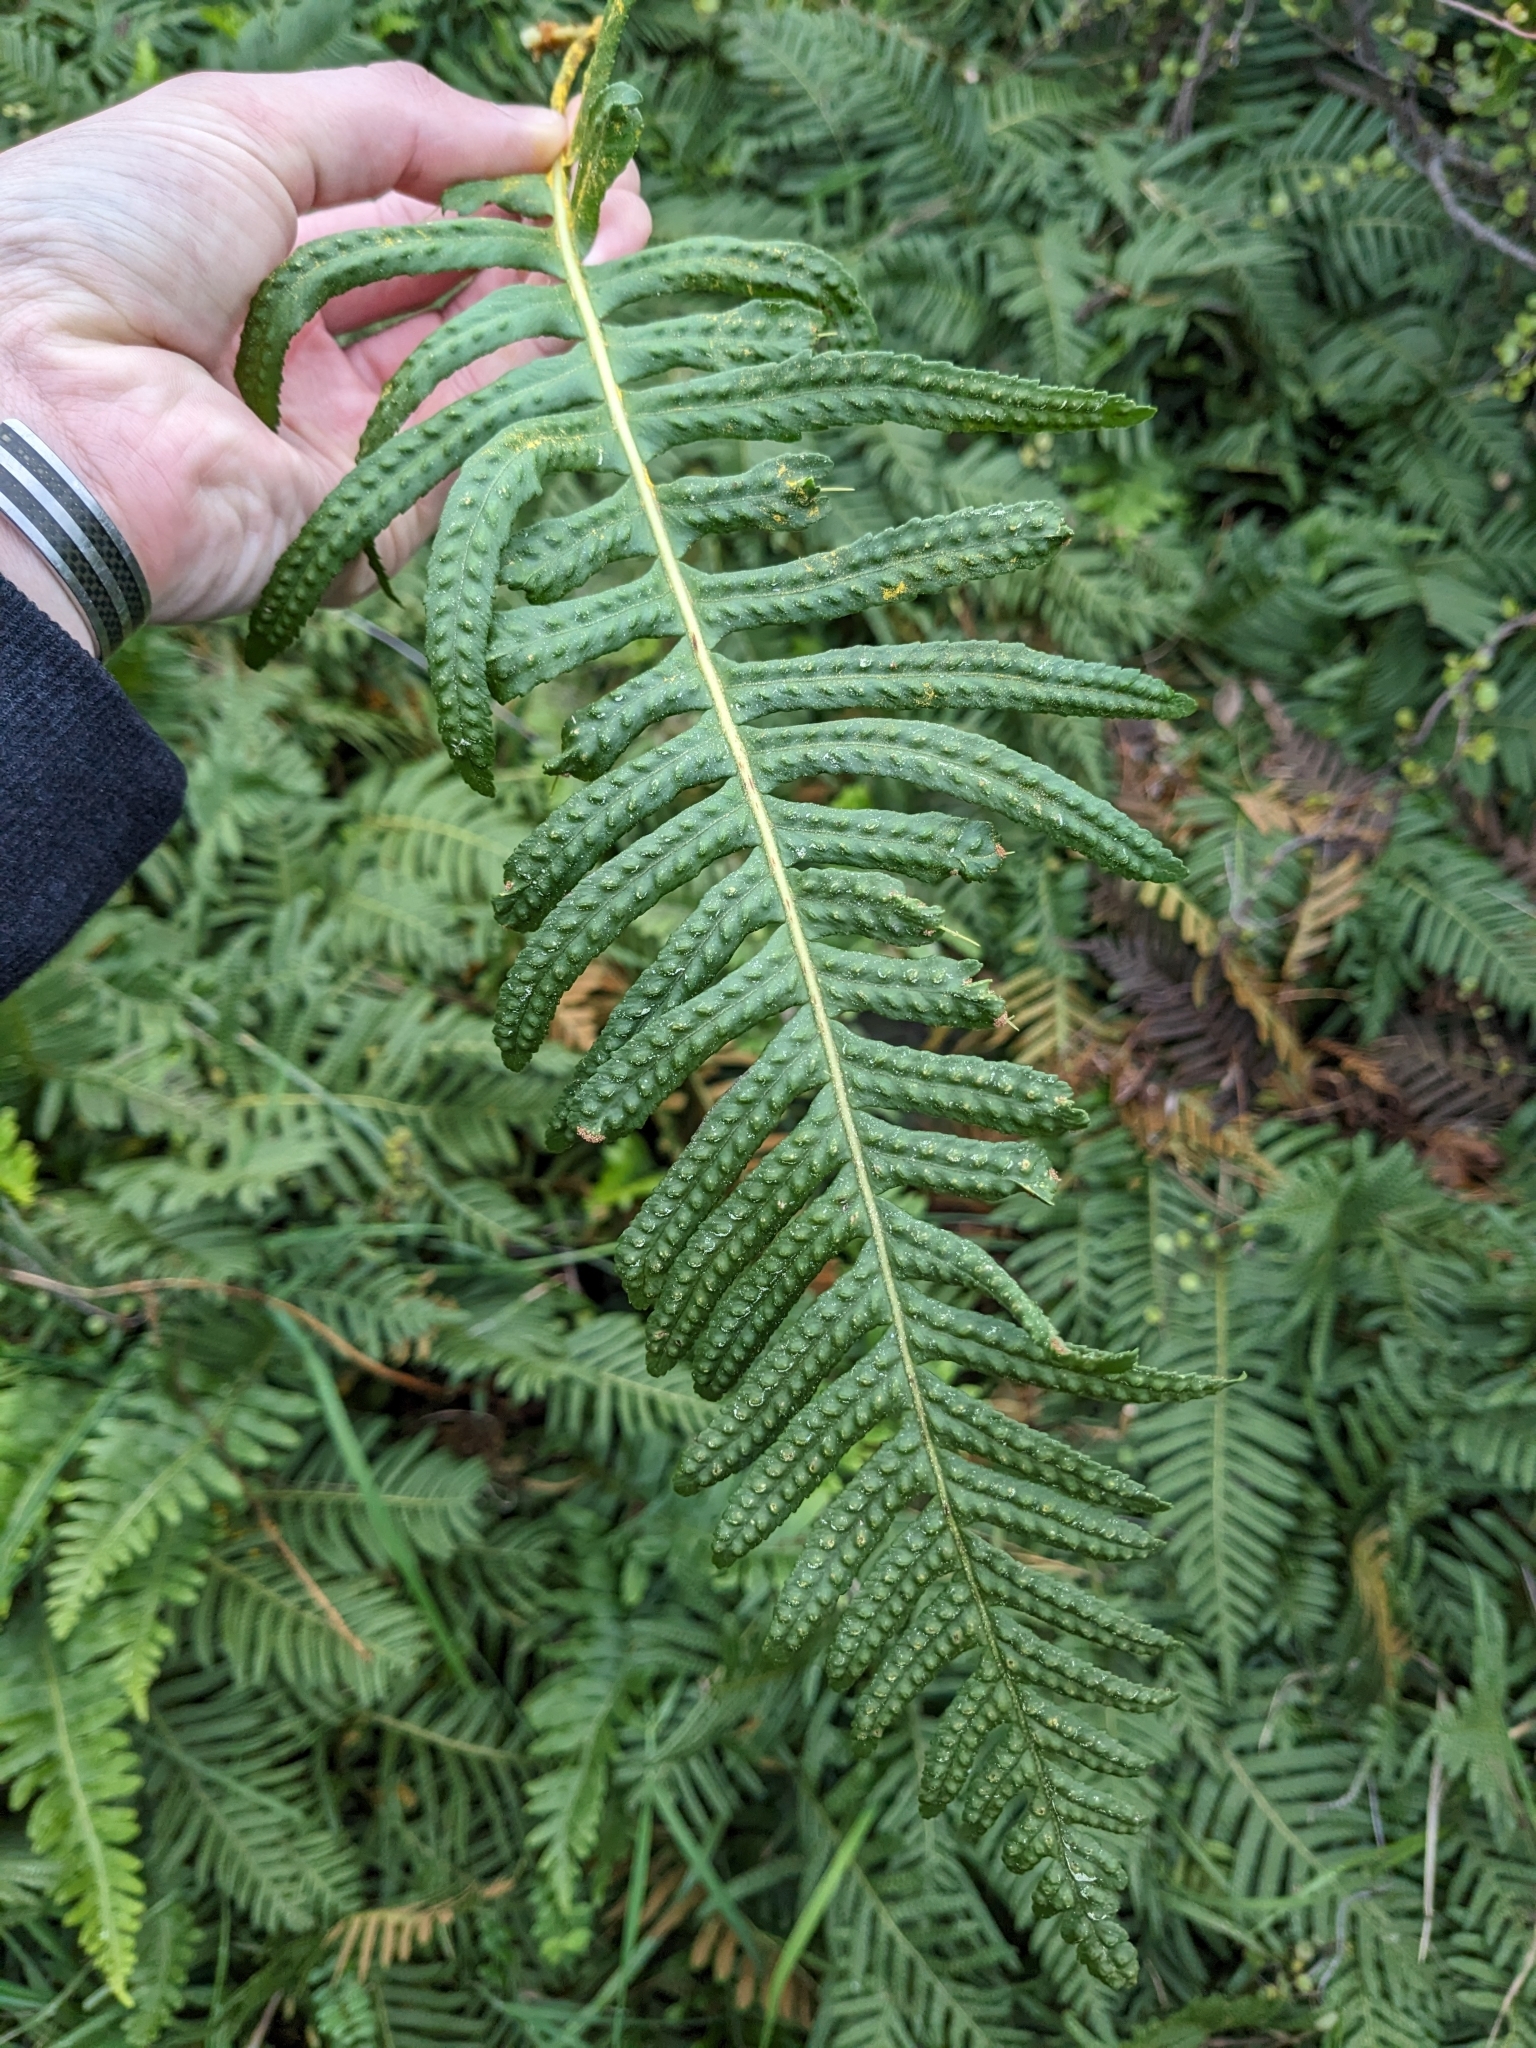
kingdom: Plantae
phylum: Tracheophyta
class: Polypodiopsida
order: Polypodiales
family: Polypodiaceae
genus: Polypodium
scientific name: Polypodium vulgare
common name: Common polypody
